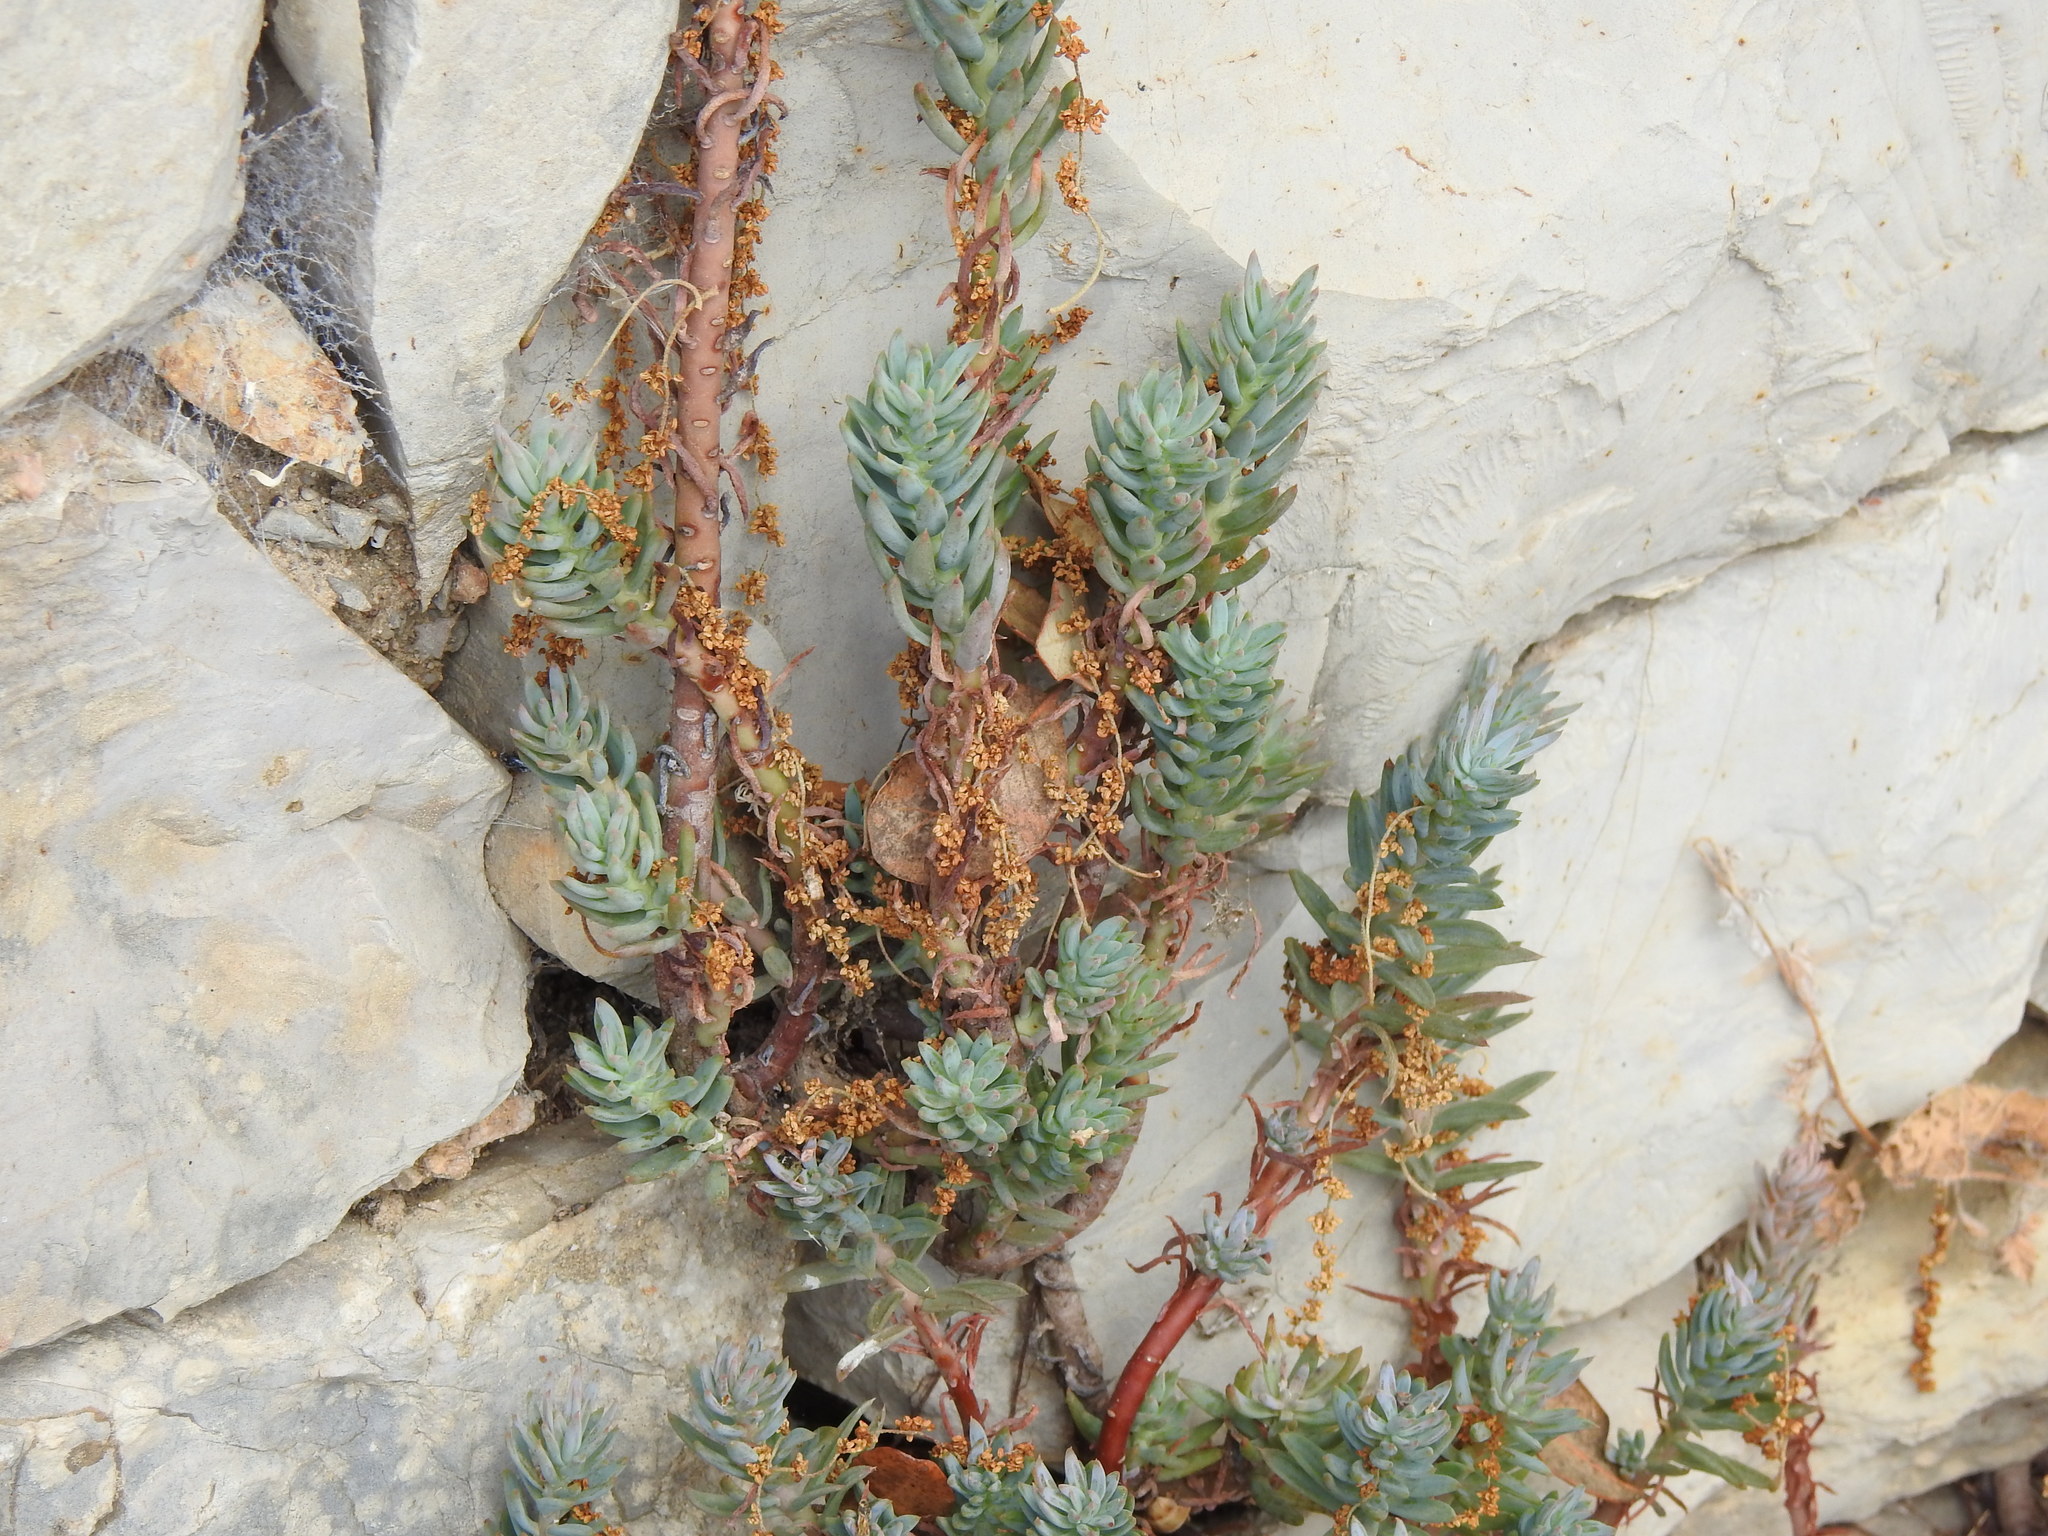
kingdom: Plantae
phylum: Tracheophyta
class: Magnoliopsida
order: Saxifragales
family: Crassulaceae
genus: Petrosedum
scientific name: Petrosedum sediforme
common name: Pale stonecrop
